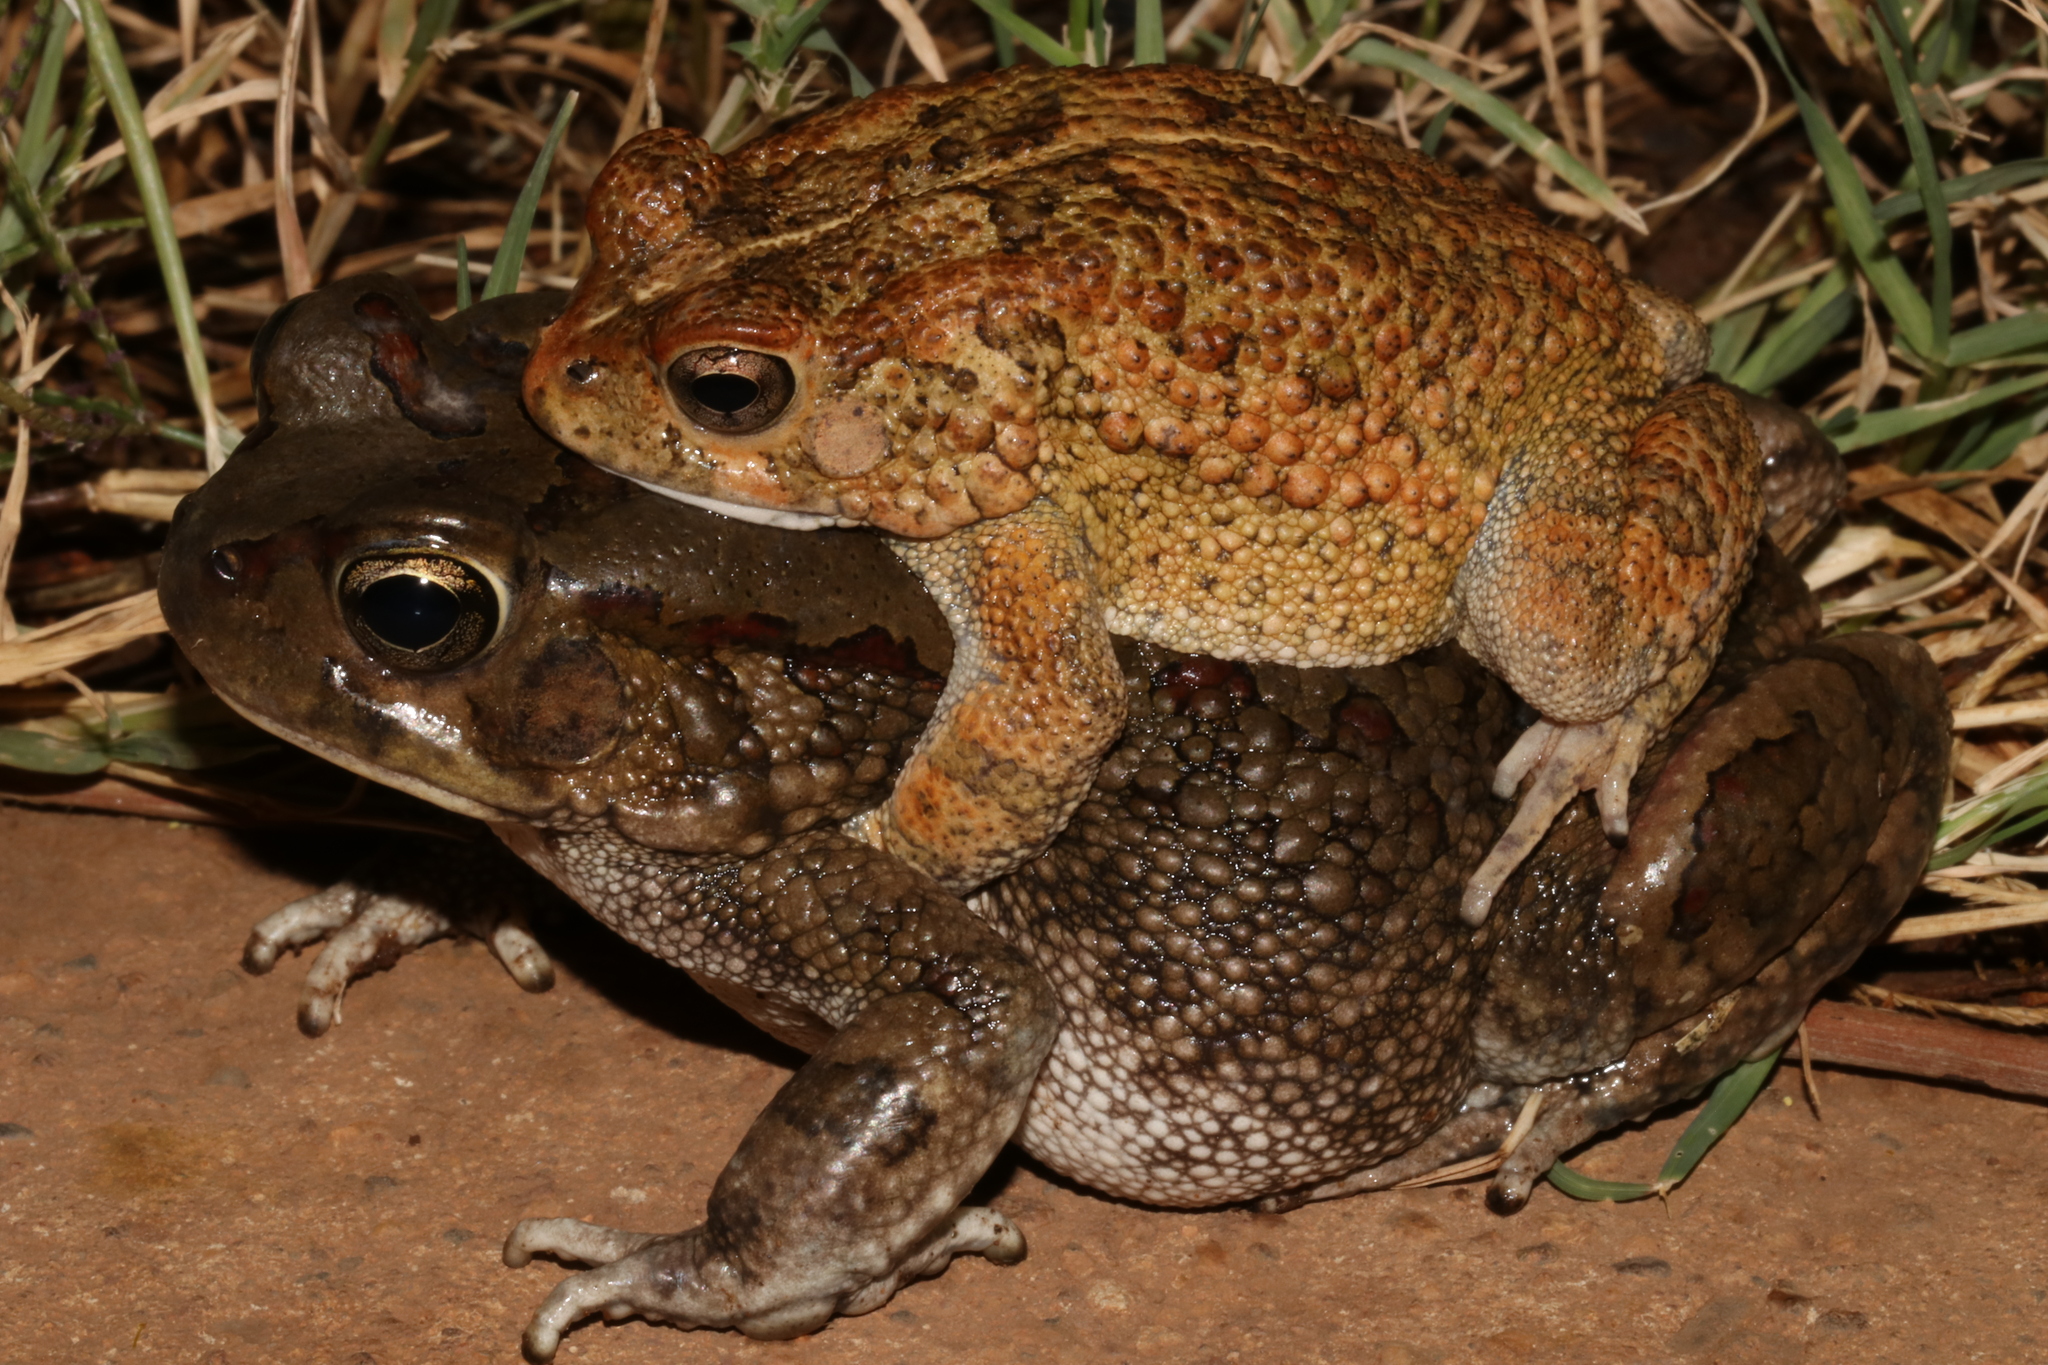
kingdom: Animalia
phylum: Chordata
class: Amphibia
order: Anura
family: Bufonidae
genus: Sclerophrys
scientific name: Sclerophrys garmani
